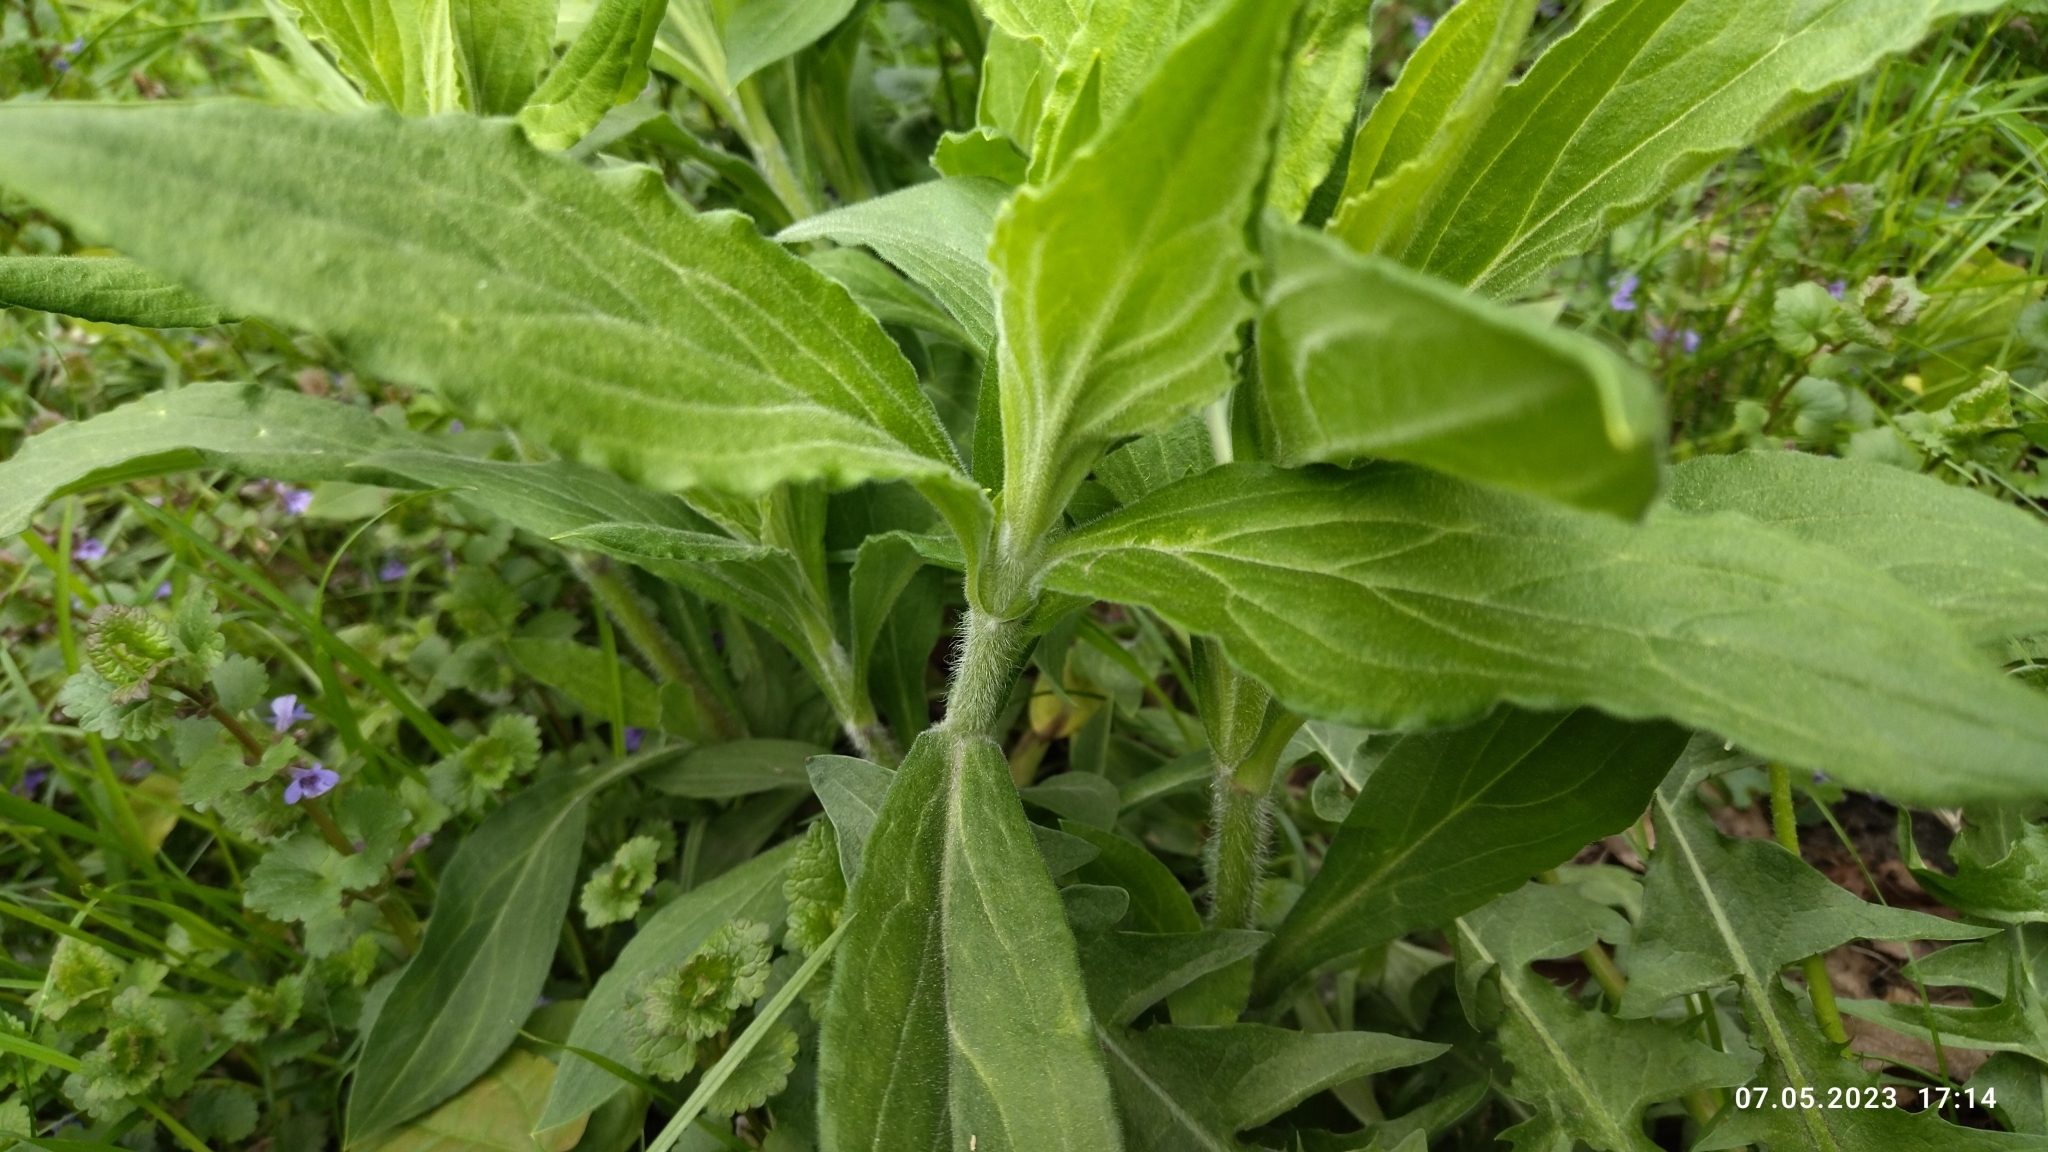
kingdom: Plantae
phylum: Tracheophyta
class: Magnoliopsida
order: Caryophyllales
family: Caryophyllaceae
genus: Silene
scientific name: Silene latifolia
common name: White campion
